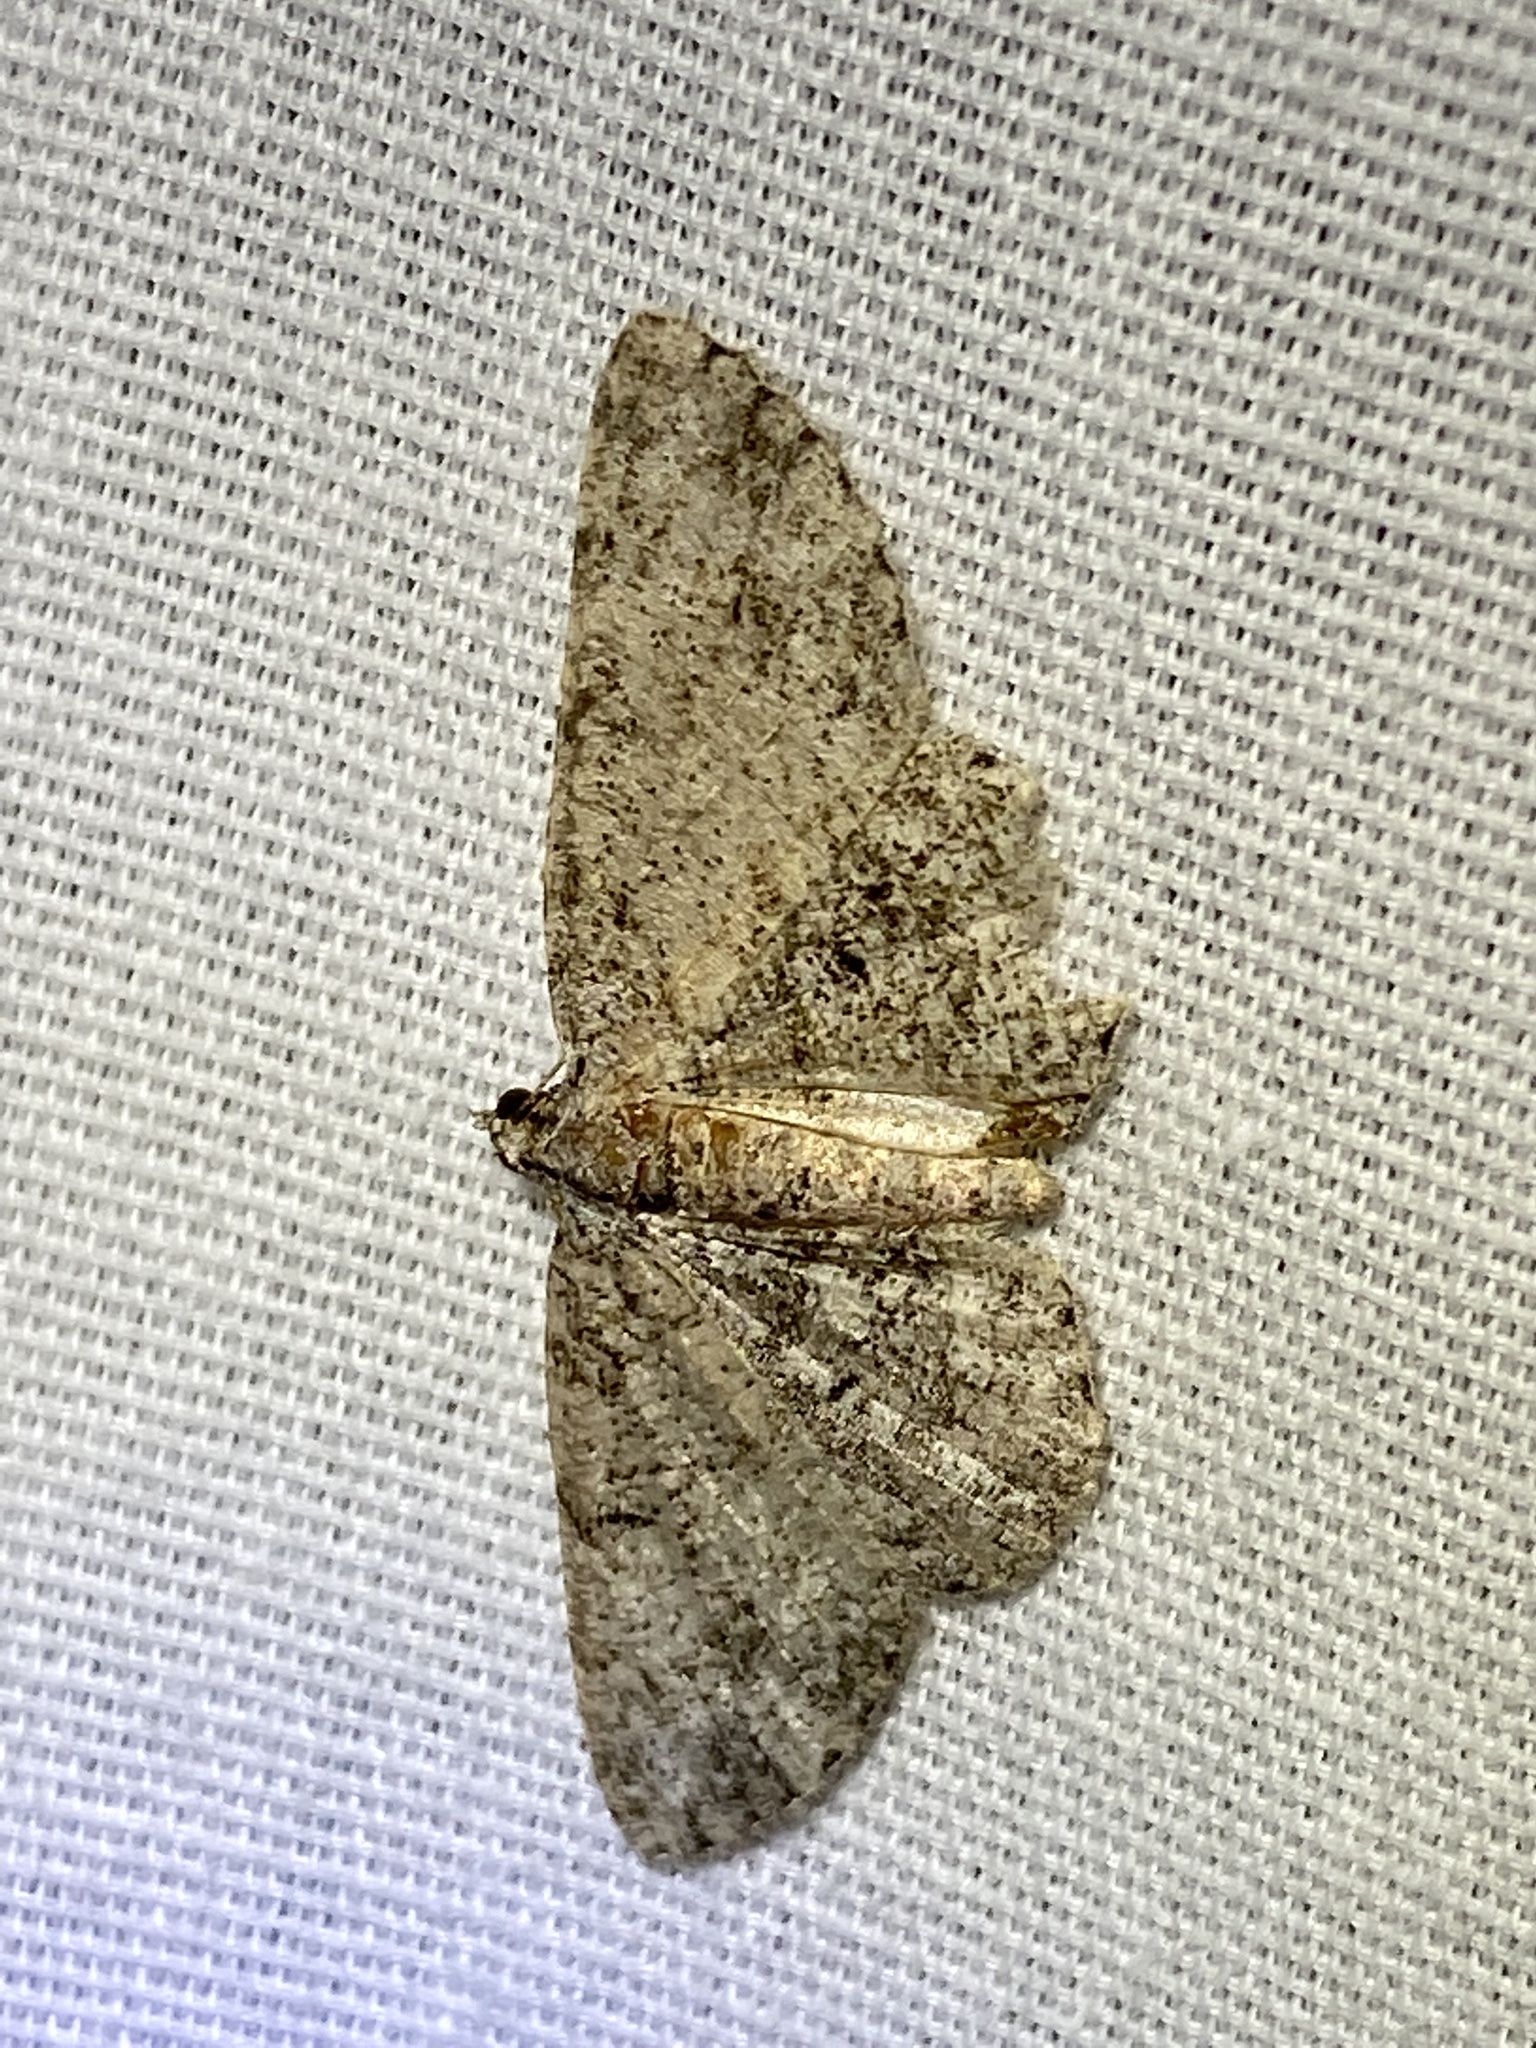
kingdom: Animalia
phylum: Arthropoda
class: Insecta
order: Lepidoptera
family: Geometridae
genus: Protoboarmia
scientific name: Protoboarmia porcelaria
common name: Porcelain gray
